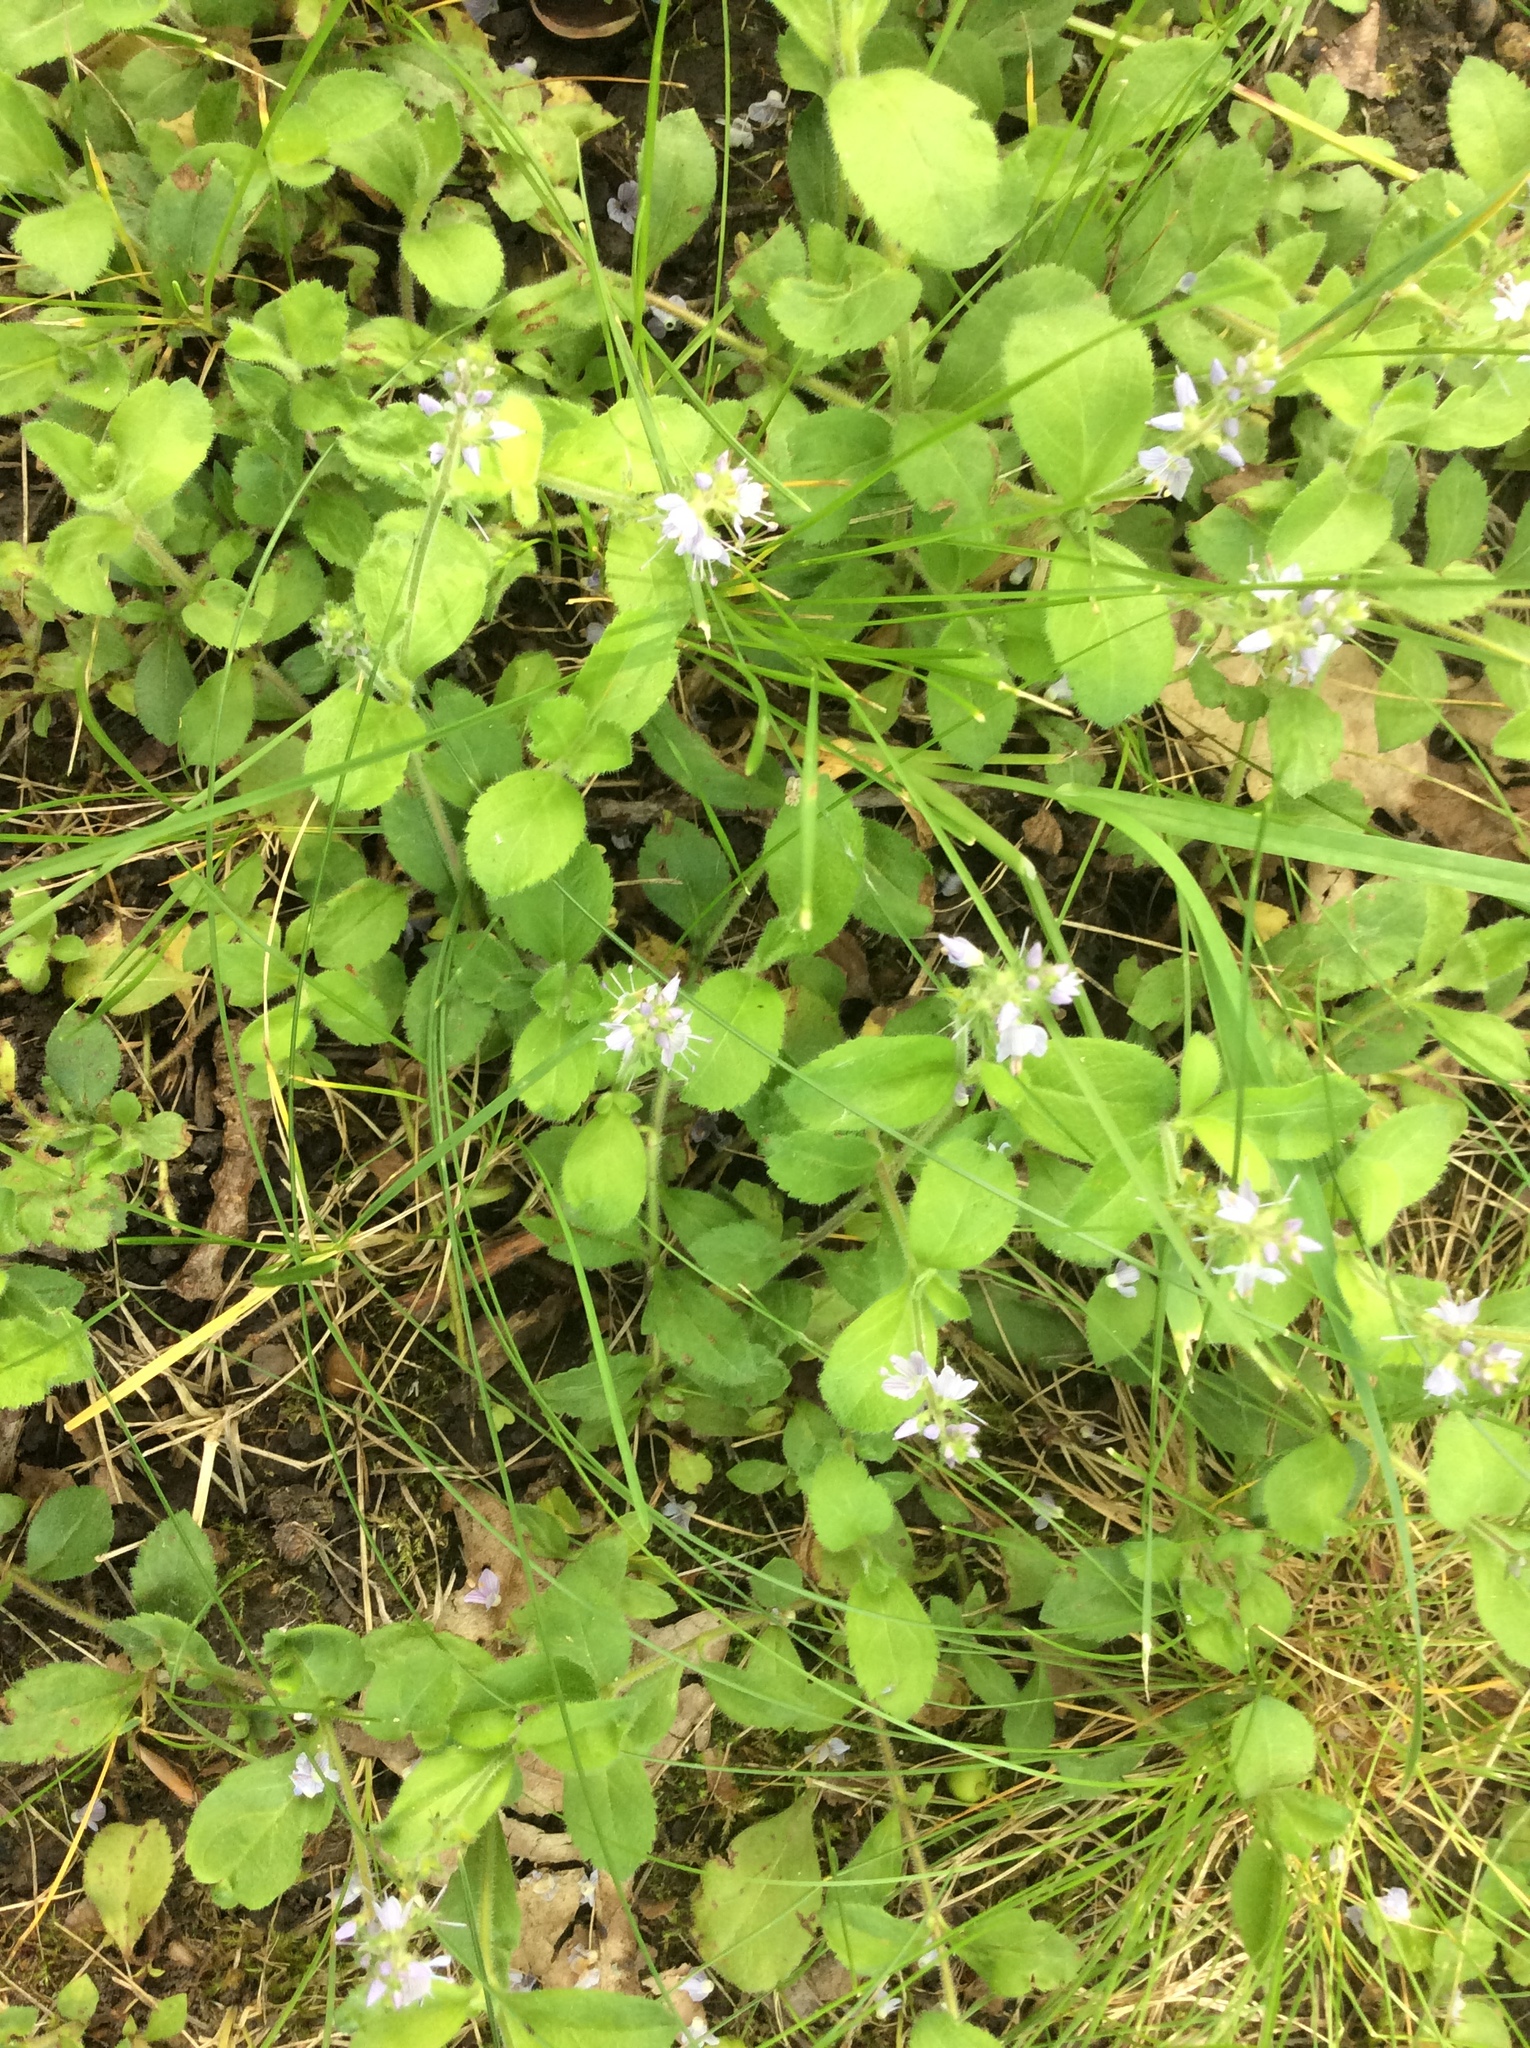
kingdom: Plantae
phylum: Tracheophyta
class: Magnoliopsida
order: Lamiales
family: Plantaginaceae
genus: Veronica
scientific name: Veronica officinalis
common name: Common speedwell
